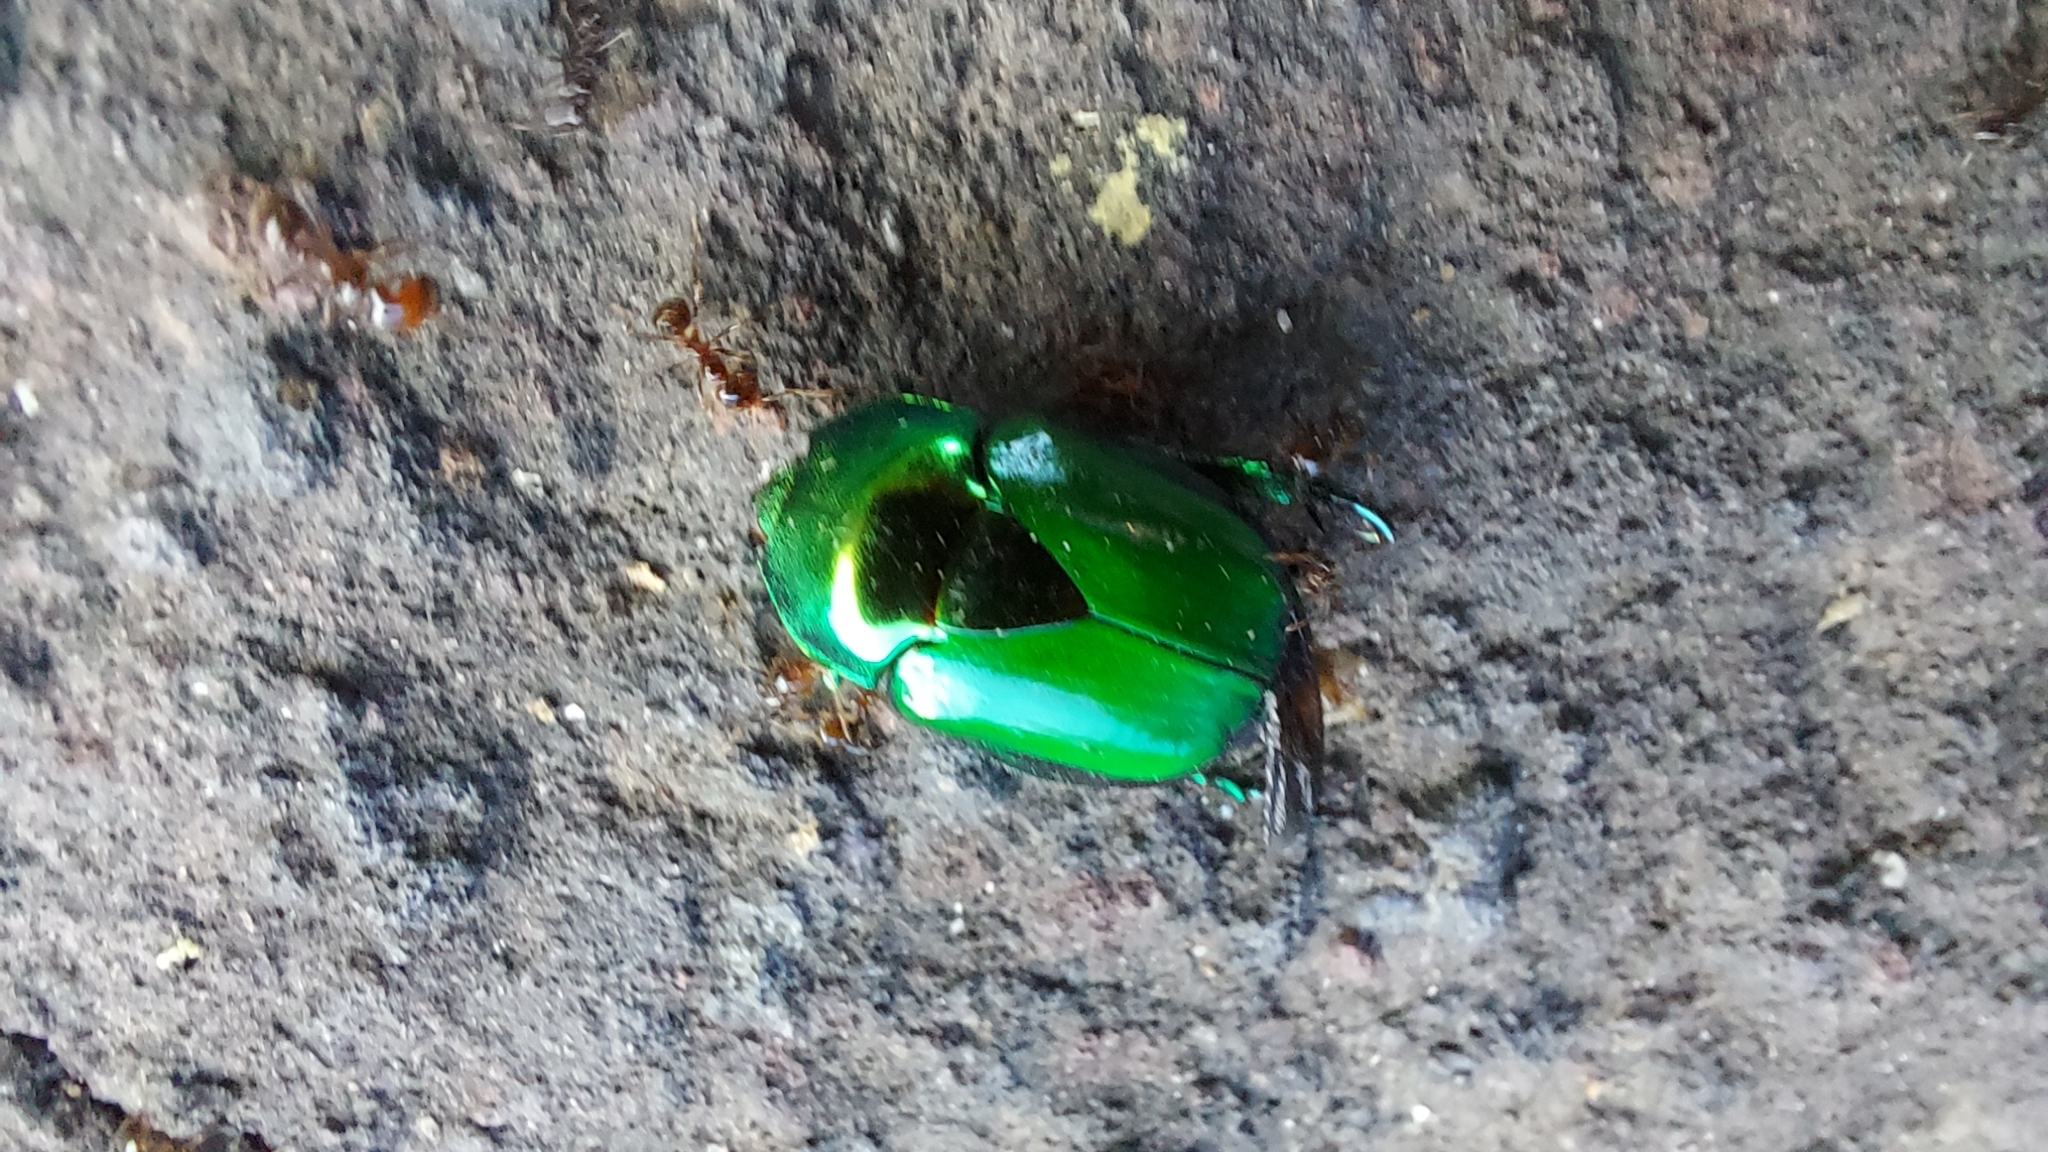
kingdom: Animalia
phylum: Arthropoda
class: Insecta
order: Coleoptera
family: Scarabaeidae
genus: Calomacraspis
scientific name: Calomacraspis splendens
